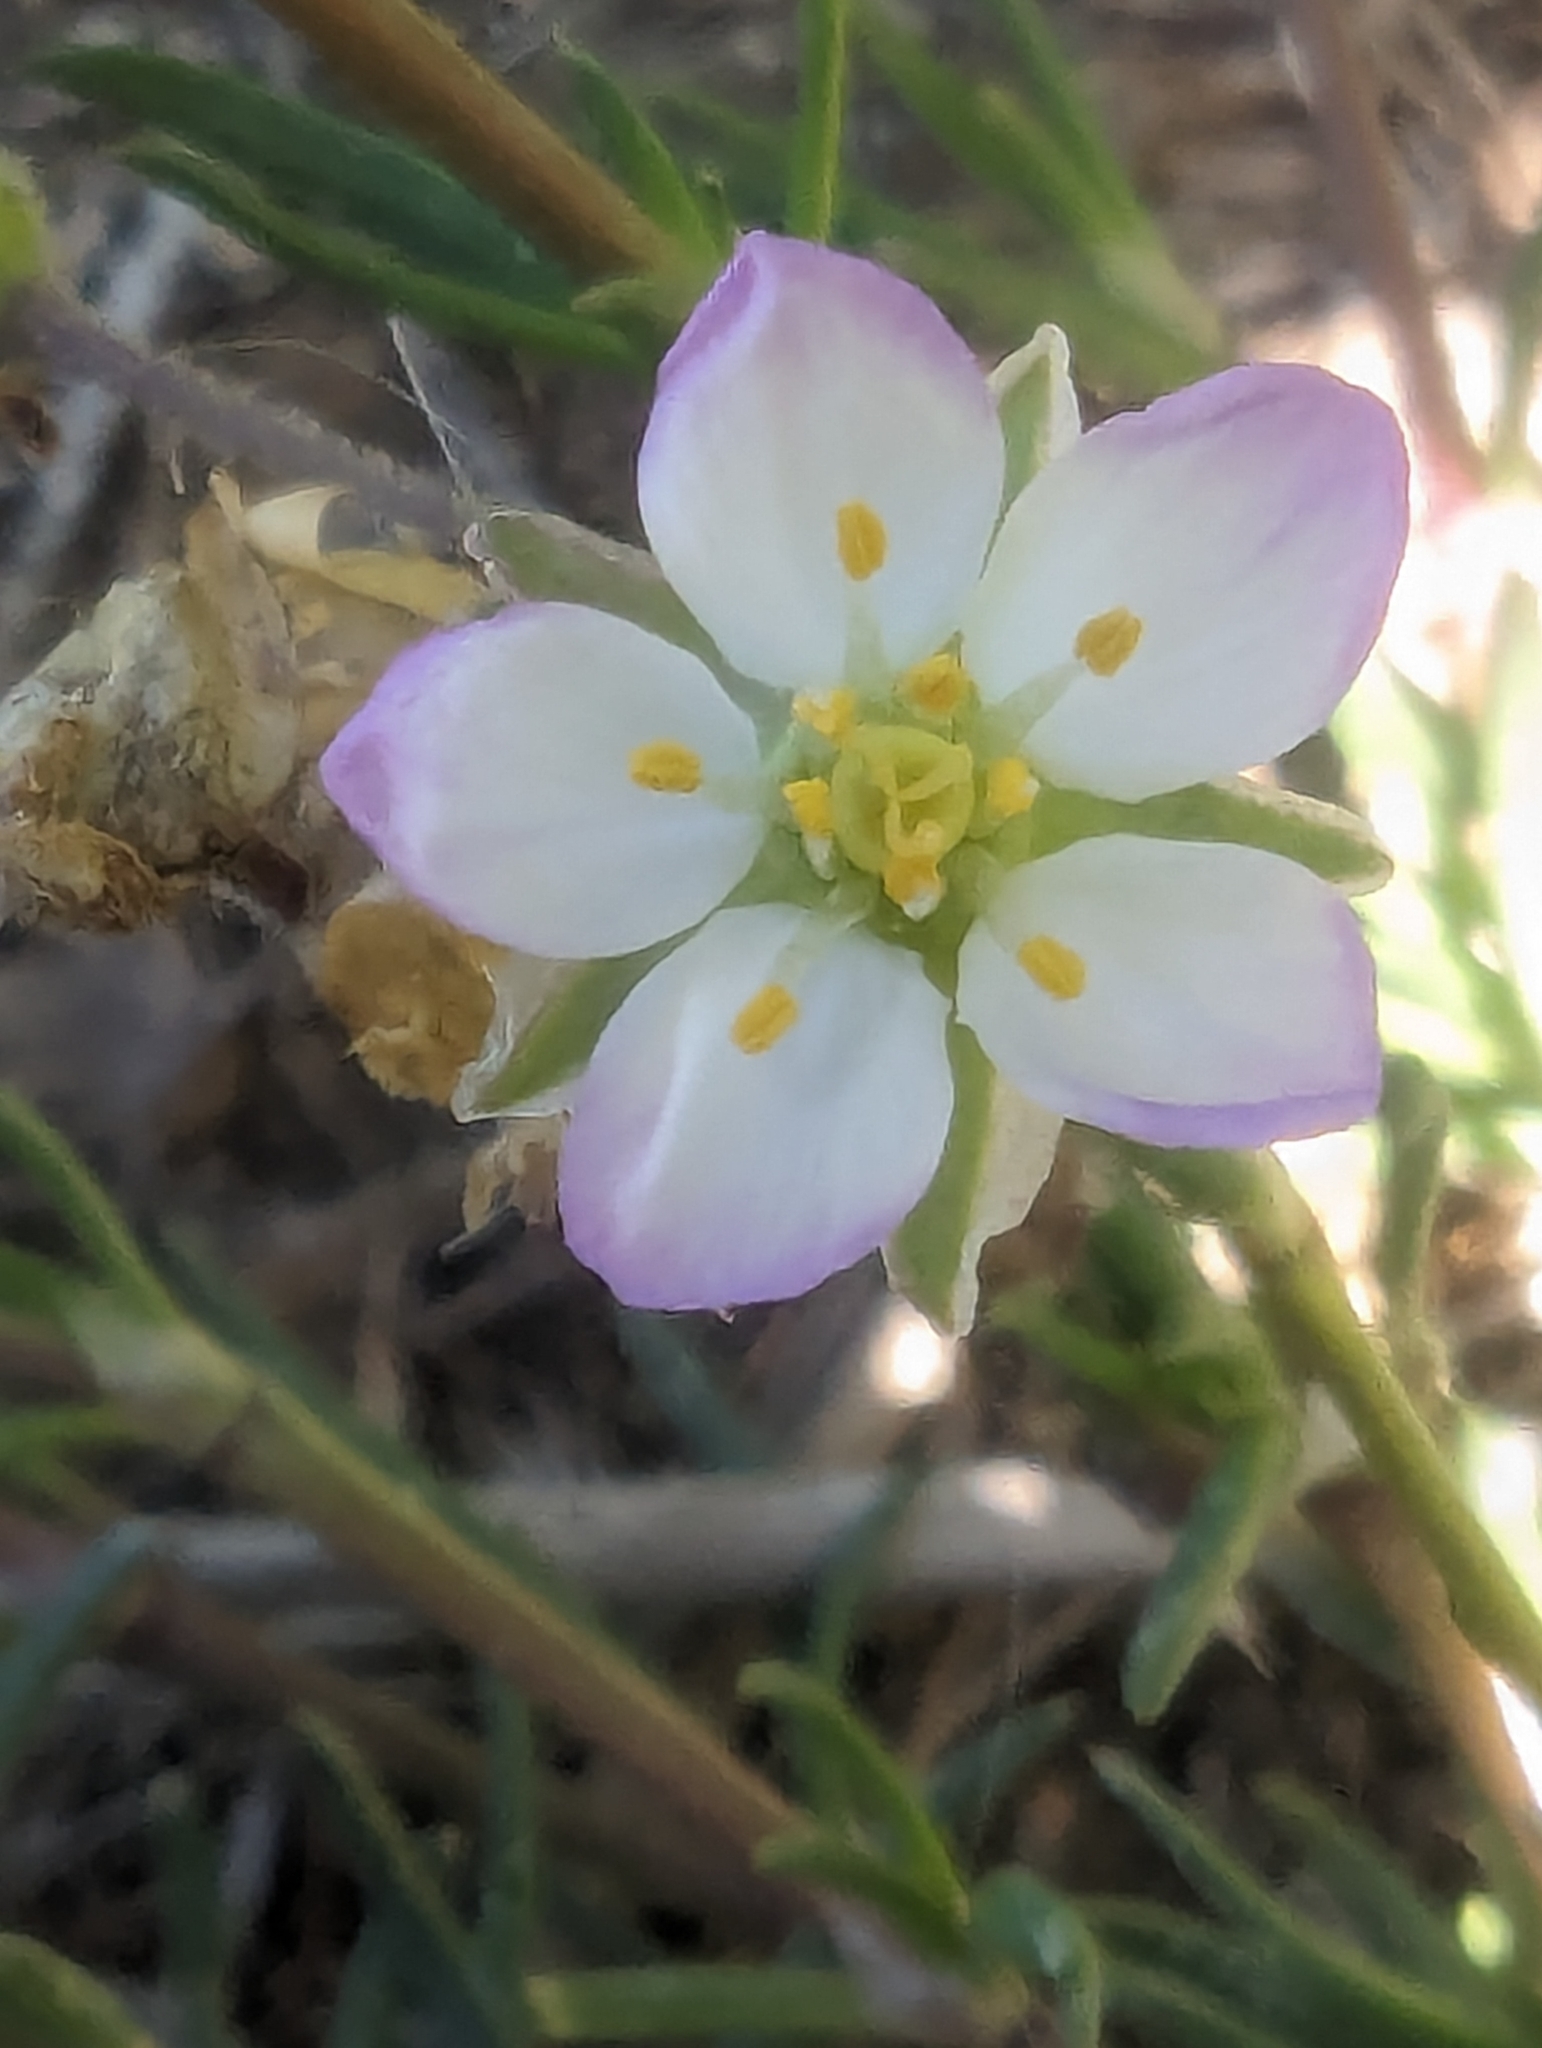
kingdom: Plantae
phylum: Tracheophyta
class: Magnoliopsida
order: Caryophyllales
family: Caryophyllaceae
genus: Spergularia
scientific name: Spergularia media
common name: Greater sea-spurrey
